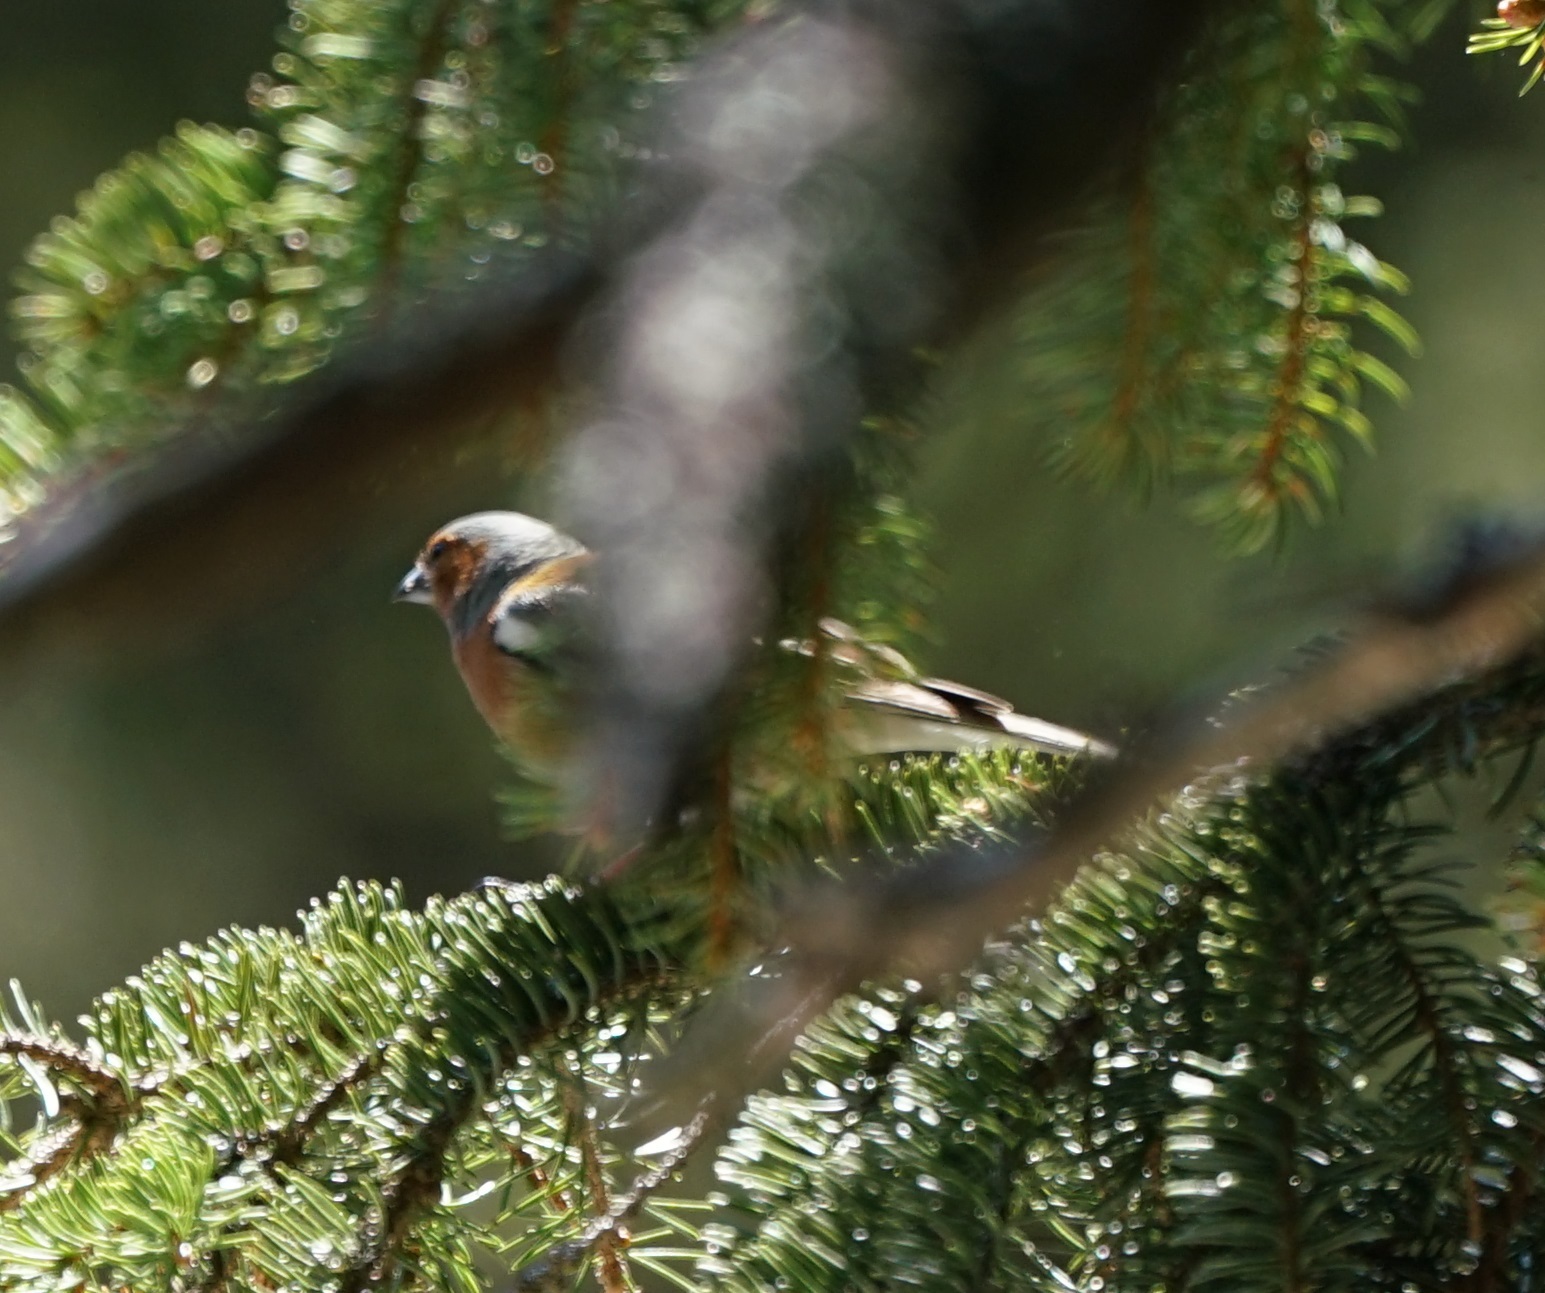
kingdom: Animalia
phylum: Chordata
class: Aves
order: Passeriformes
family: Fringillidae
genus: Fringilla
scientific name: Fringilla coelebs
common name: Common chaffinch
